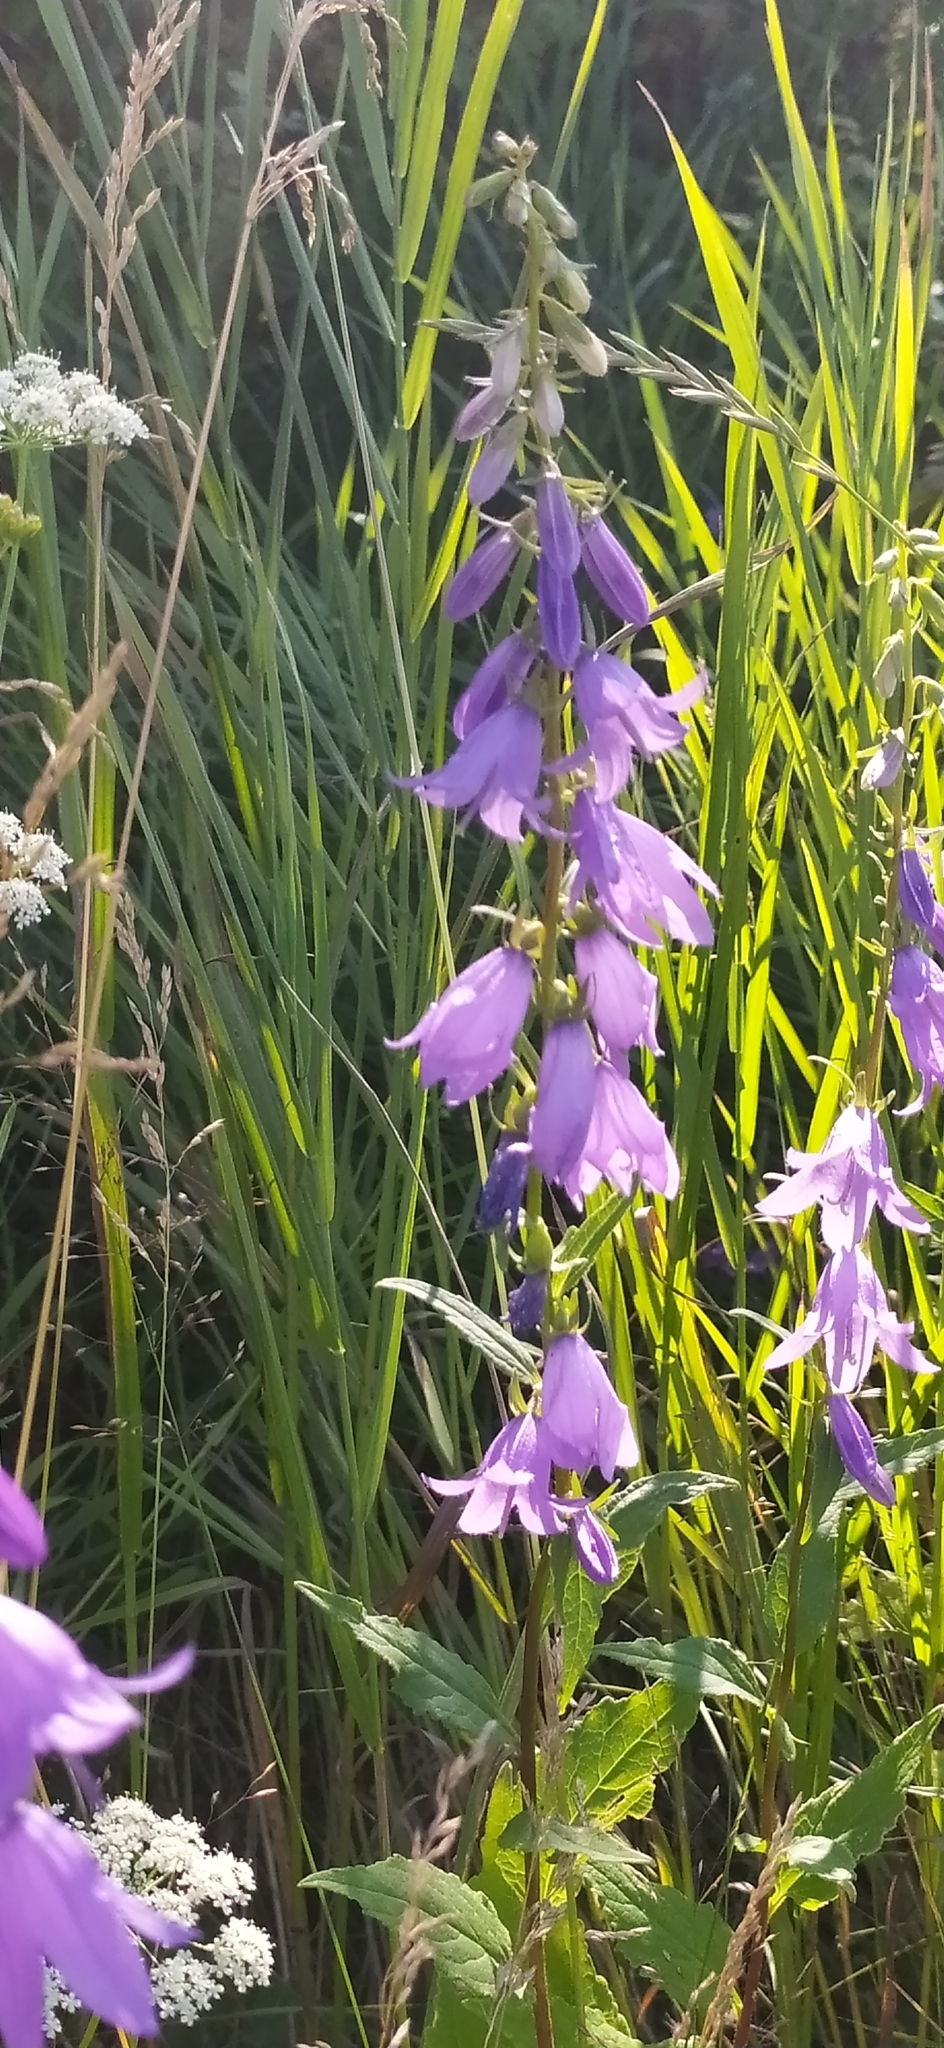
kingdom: Plantae
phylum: Tracheophyta
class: Magnoliopsida
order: Asterales
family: Campanulaceae
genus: Campanula
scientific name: Campanula rapunculoides
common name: Creeping bellflower
